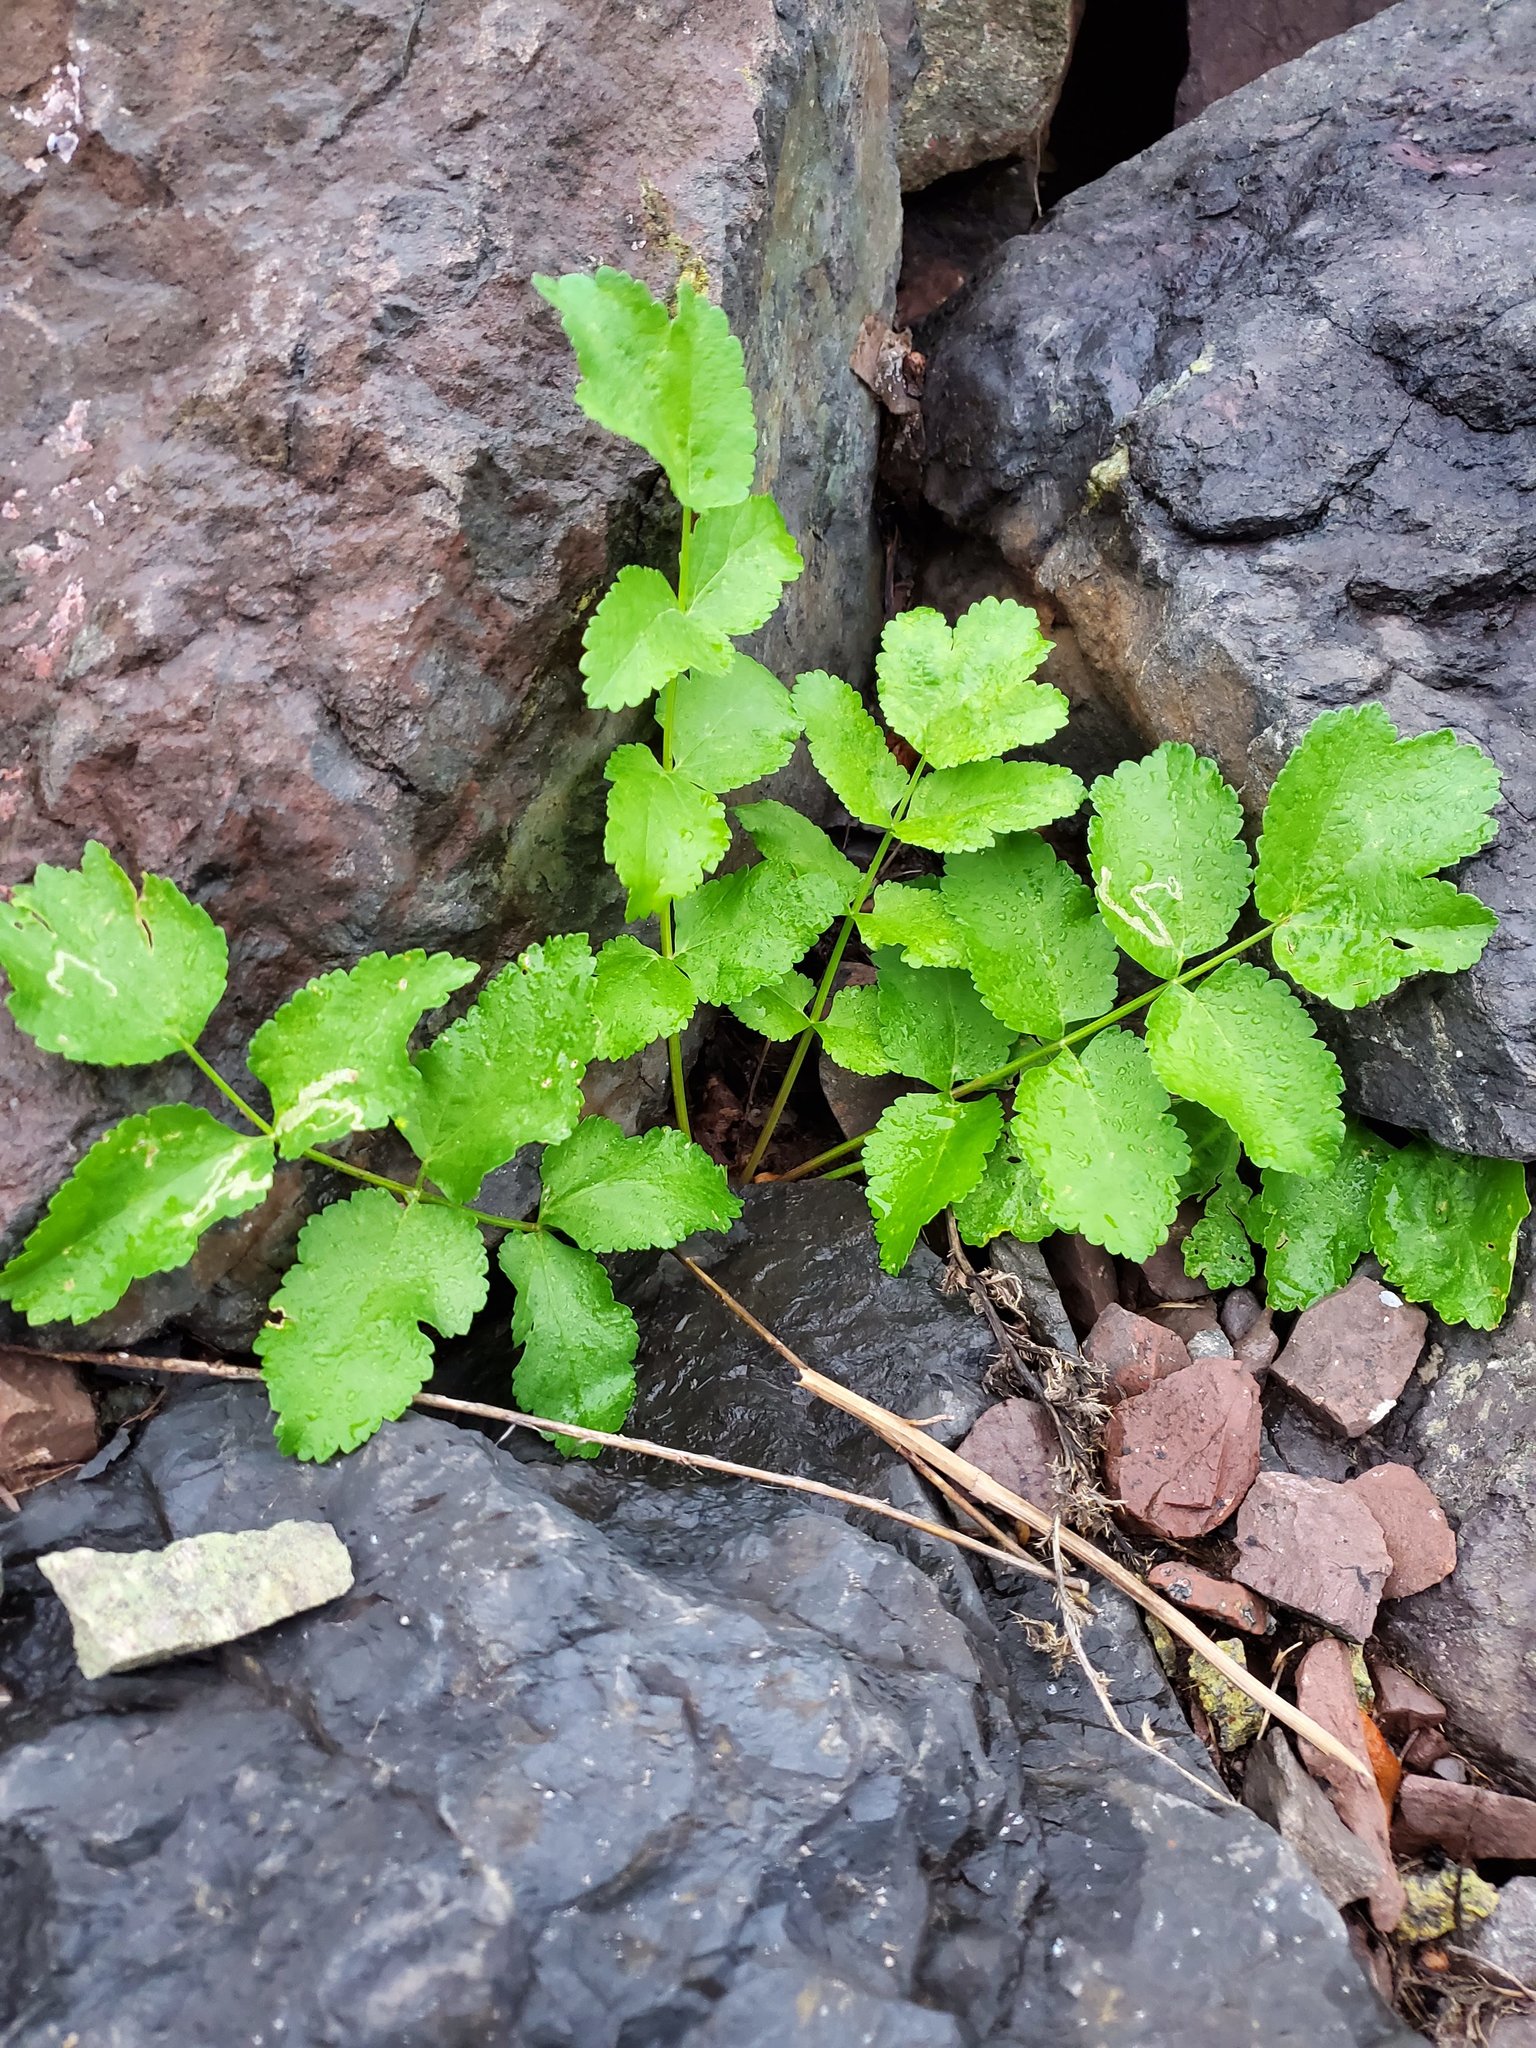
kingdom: Plantae
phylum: Tracheophyta
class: Magnoliopsida
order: Apiales
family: Apiaceae
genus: Pastinaca
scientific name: Pastinaca sativa
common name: Wild parsnip
